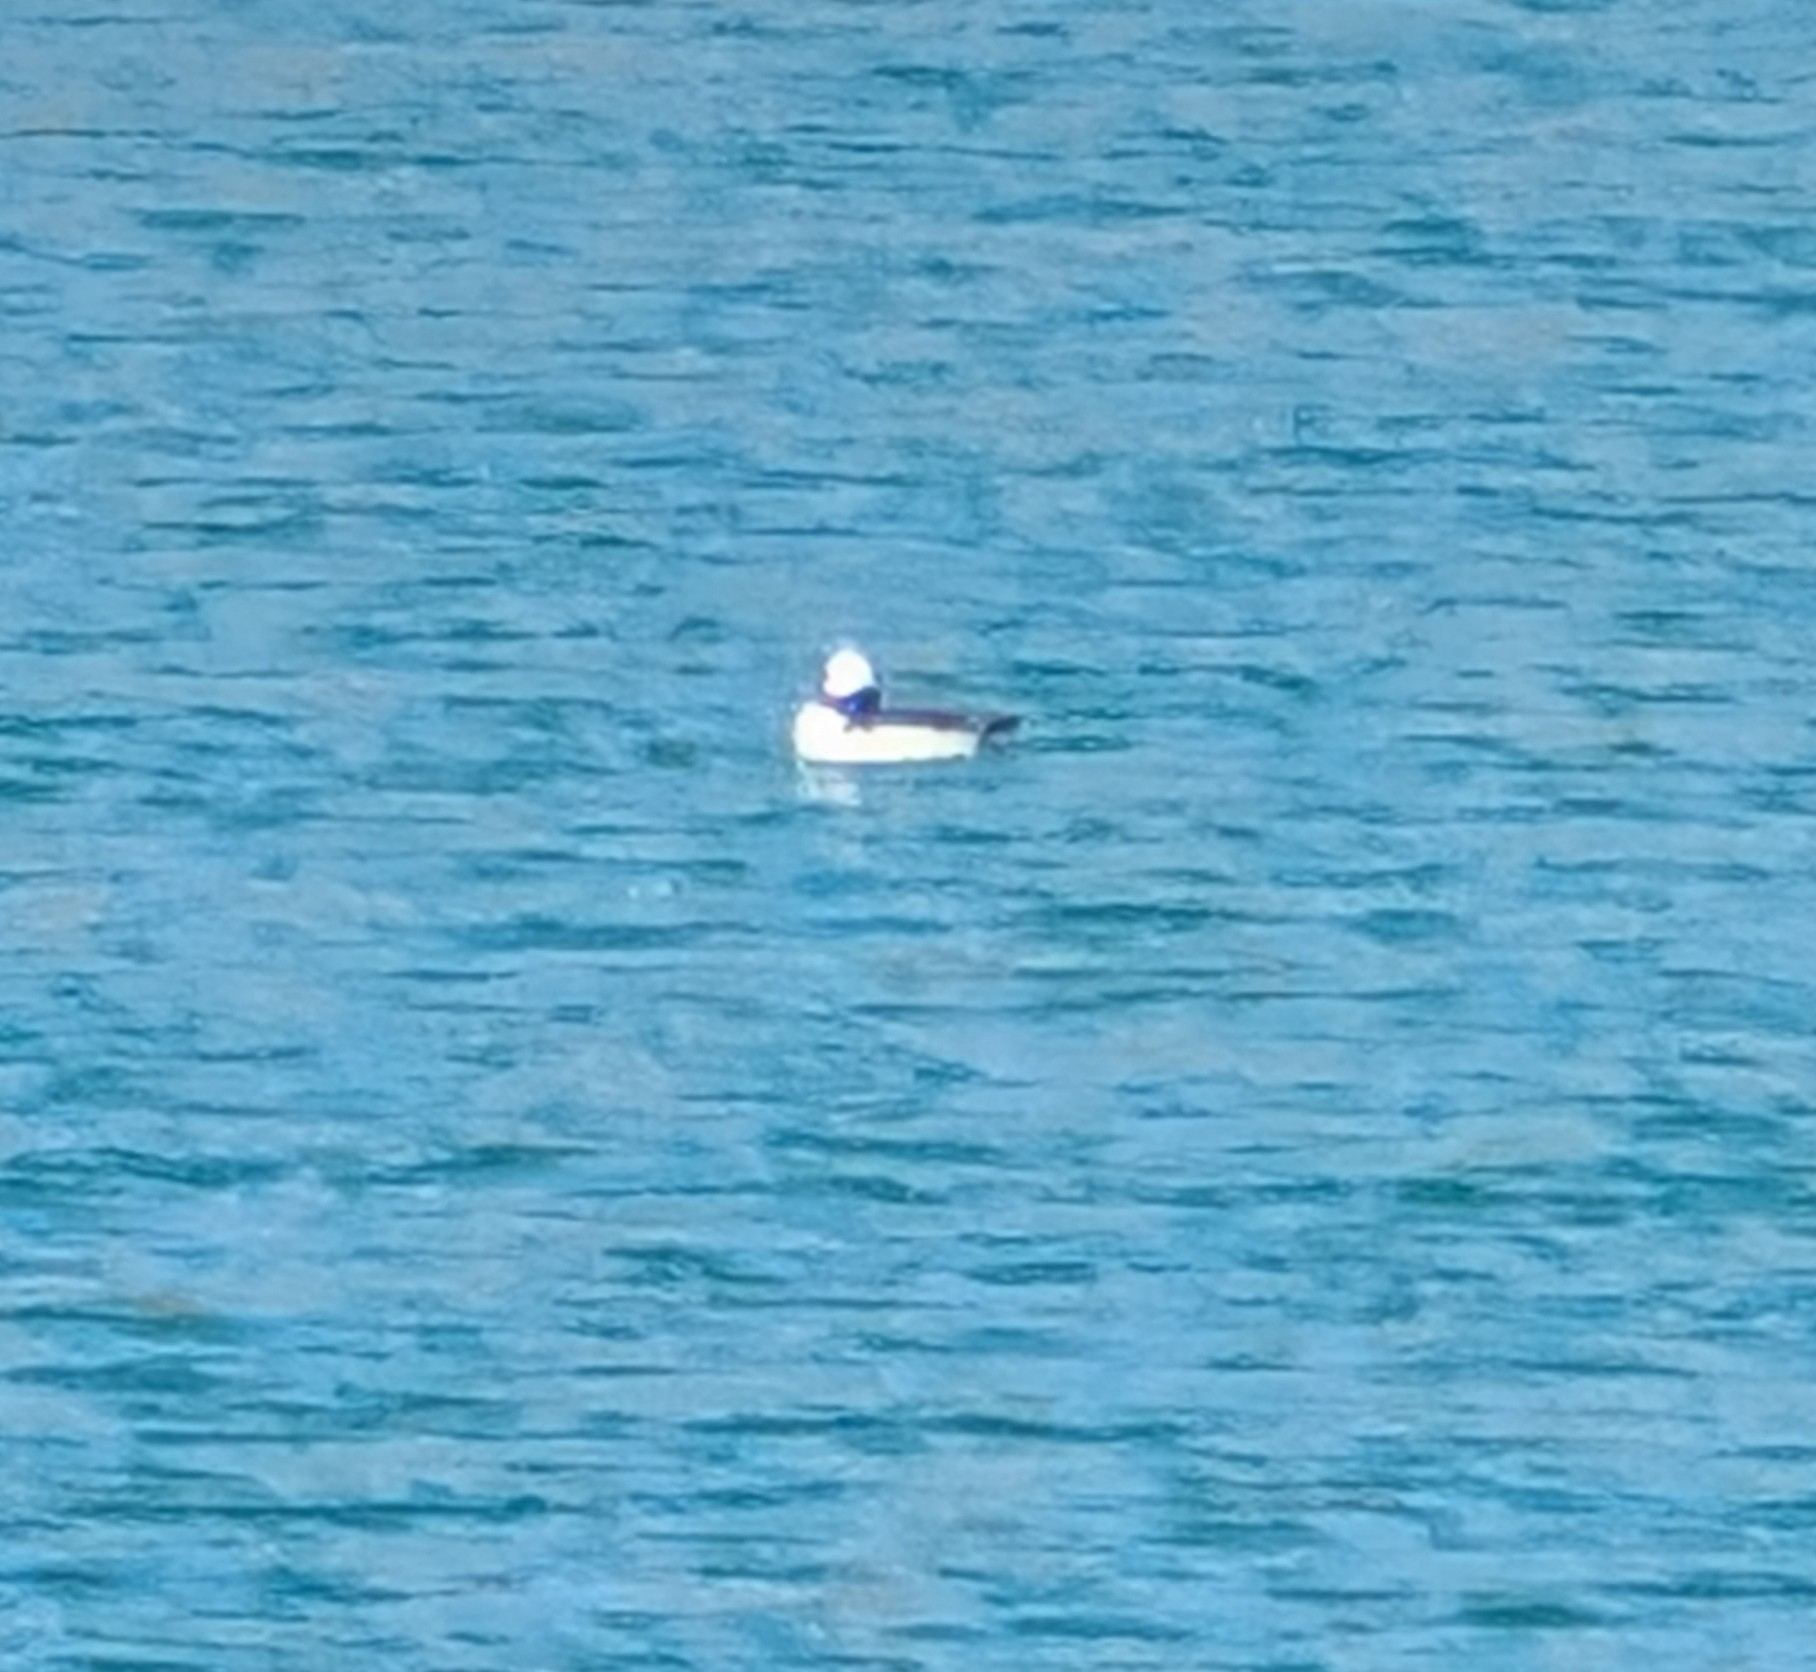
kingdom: Animalia
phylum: Chordata
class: Aves
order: Anseriformes
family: Anatidae
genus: Bucephala
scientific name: Bucephala albeola
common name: Bufflehead
